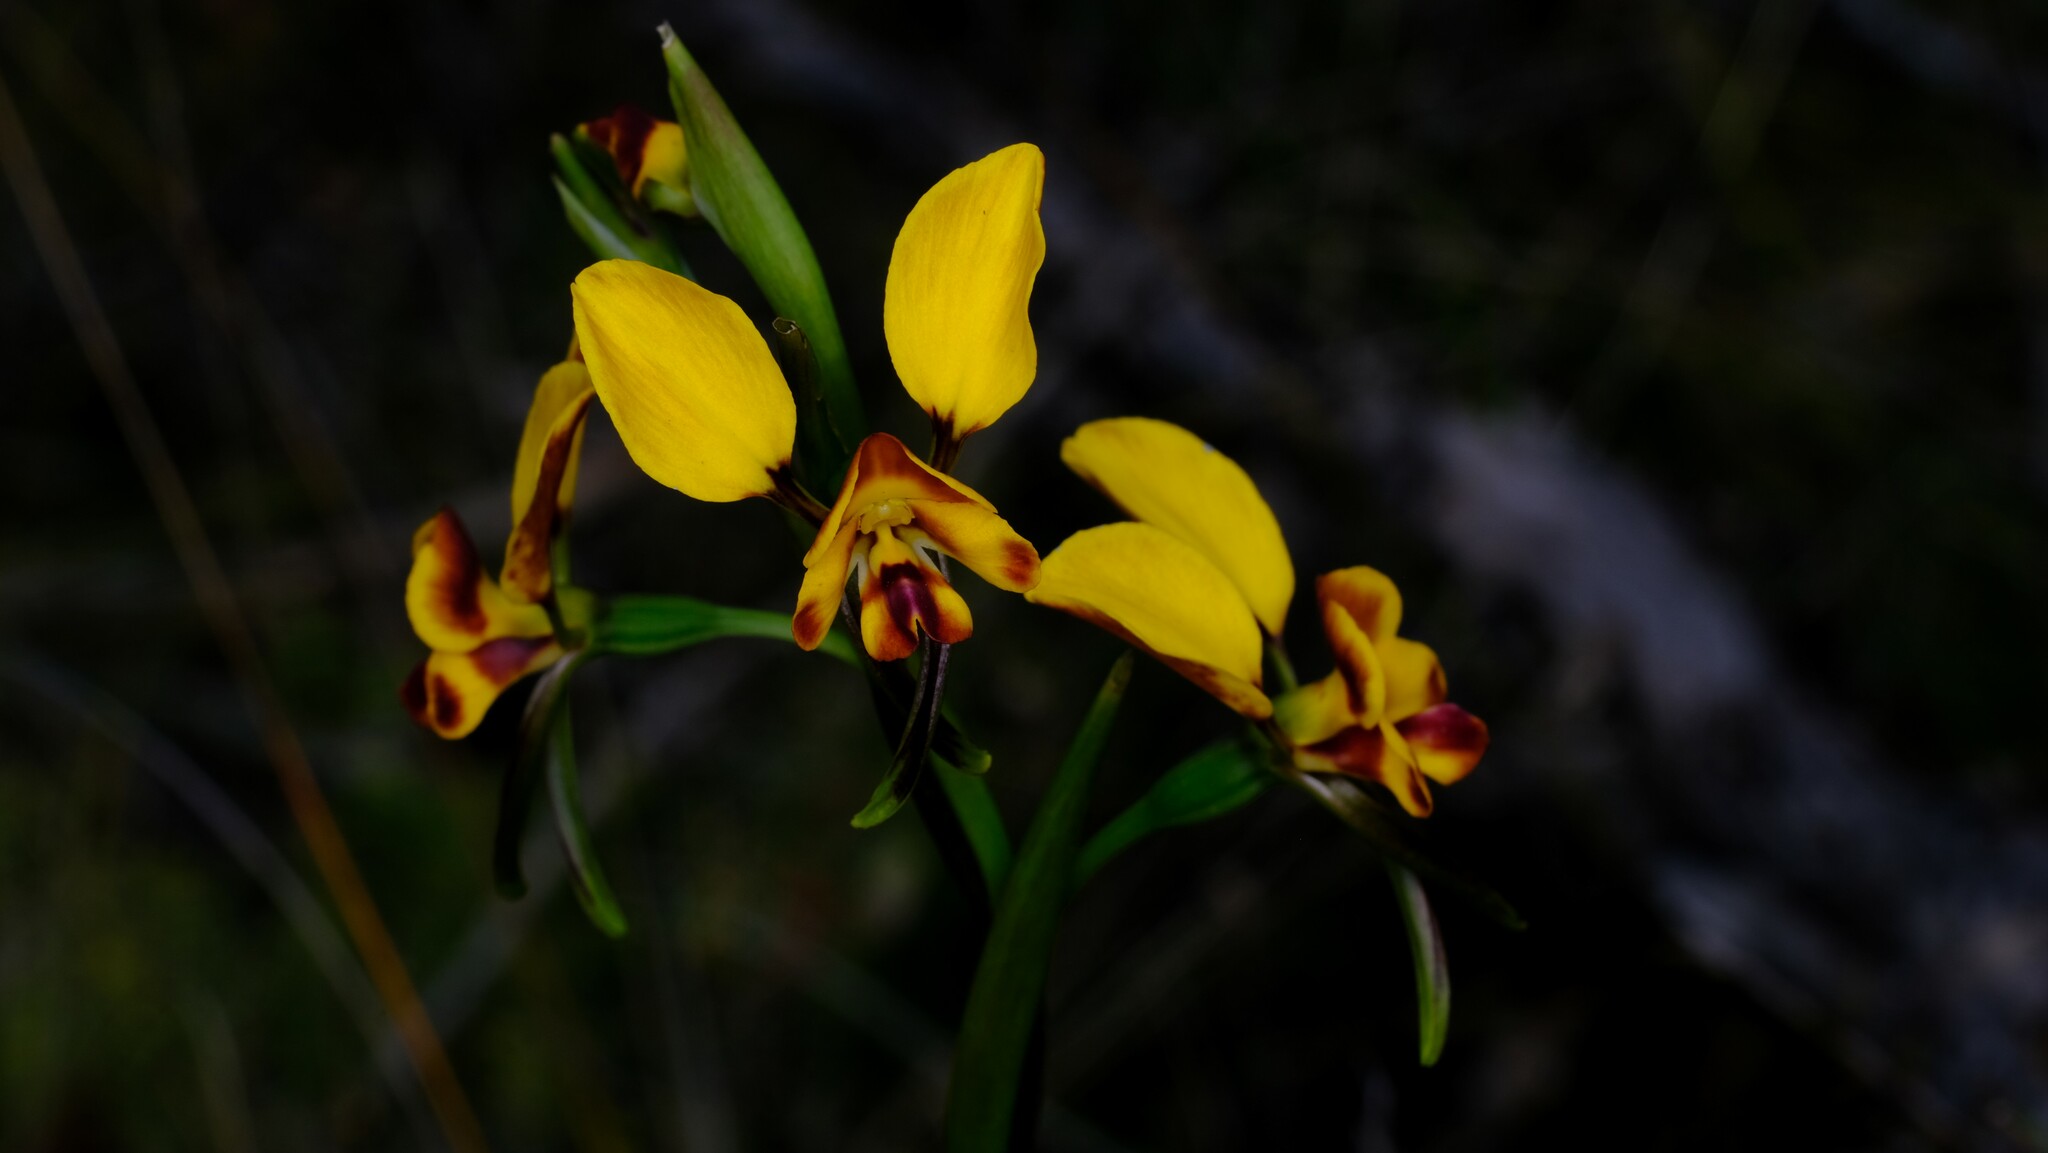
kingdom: Plantae
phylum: Tracheophyta
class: Liliopsida
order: Asparagales
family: Orchidaceae
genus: Diuris
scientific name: Diuris orientis
